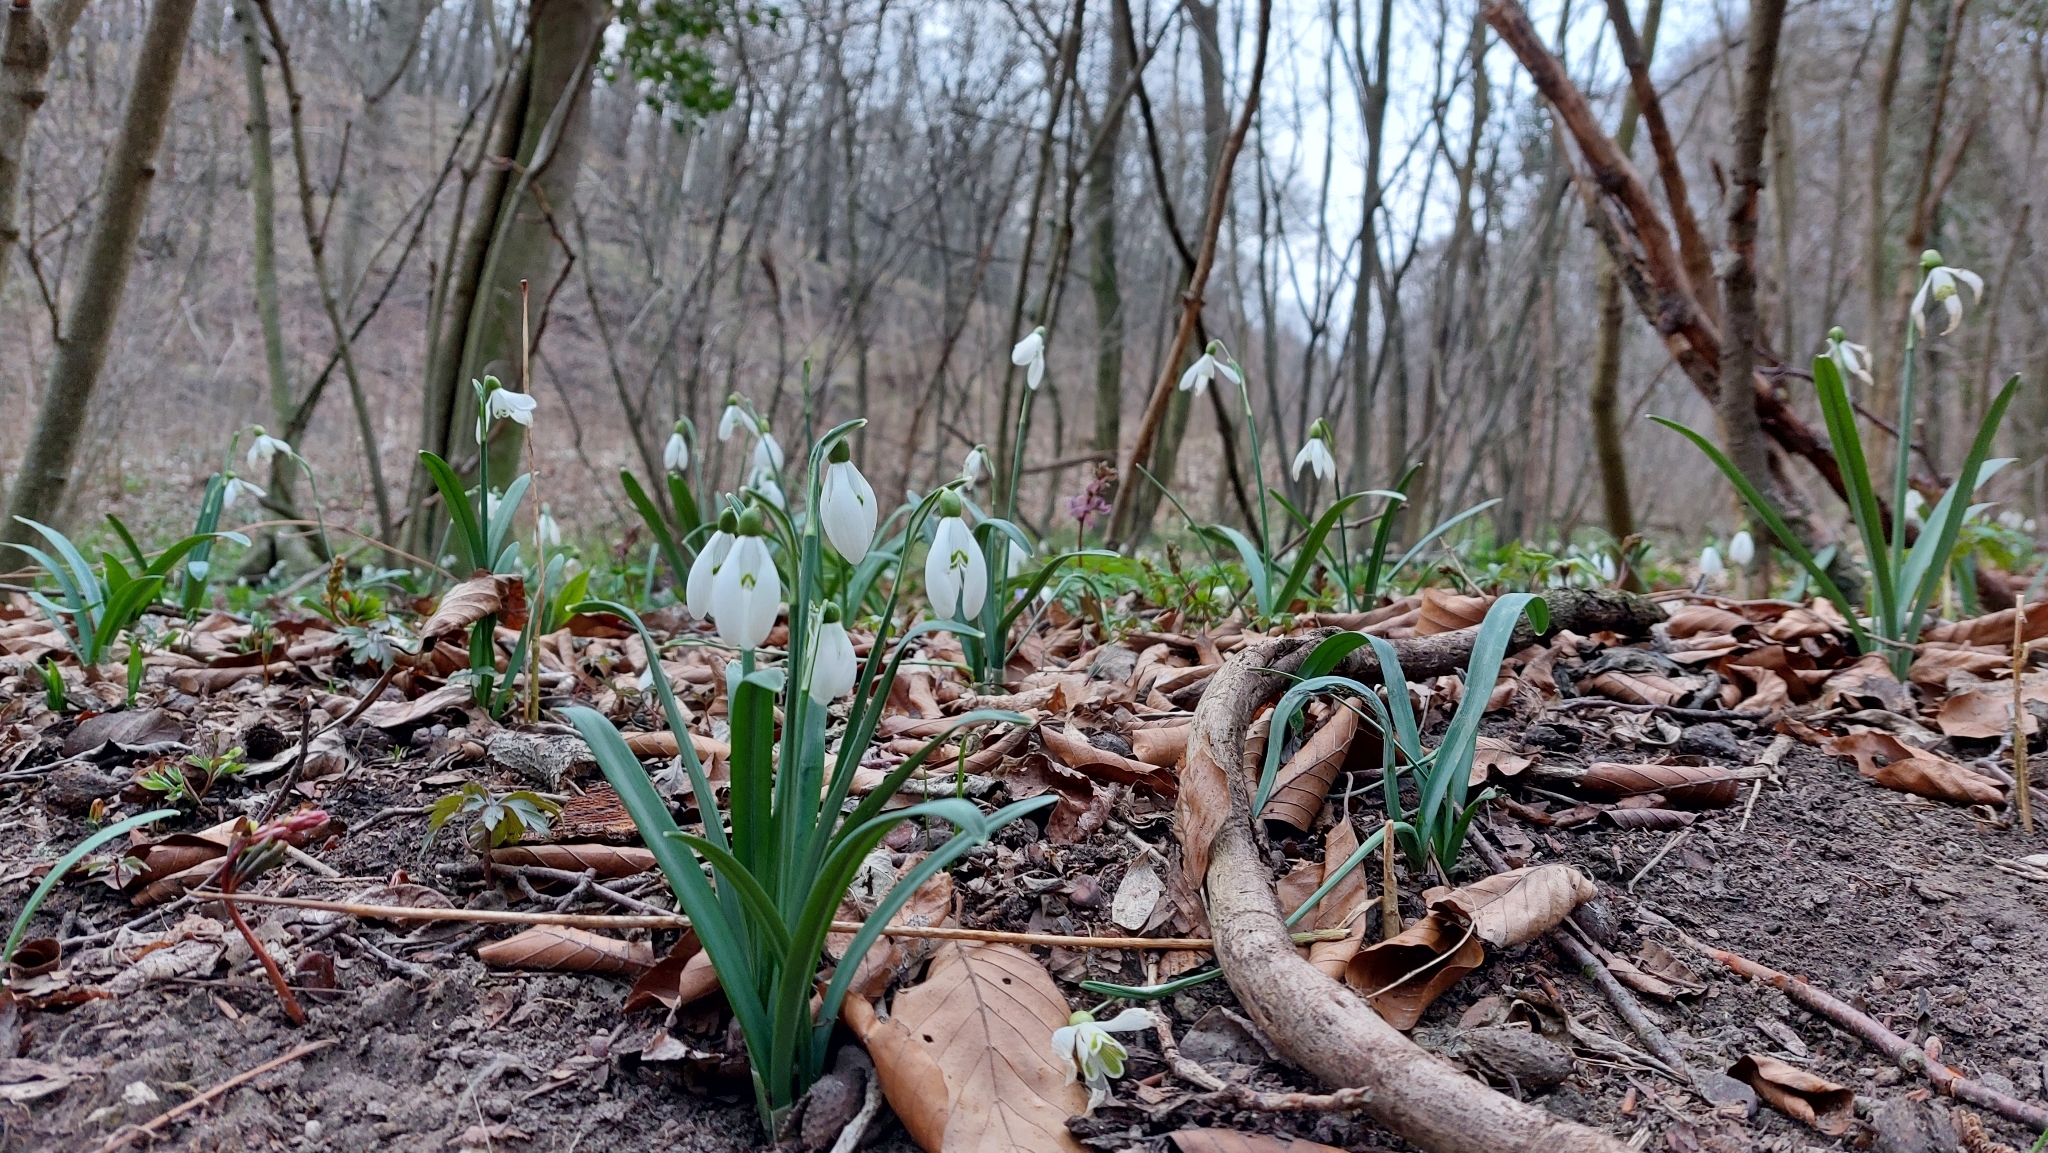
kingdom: Plantae
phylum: Tracheophyta
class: Liliopsida
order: Asparagales
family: Amaryllidaceae
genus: Galanthus
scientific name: Galanthus nivalis
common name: Snowdrop
